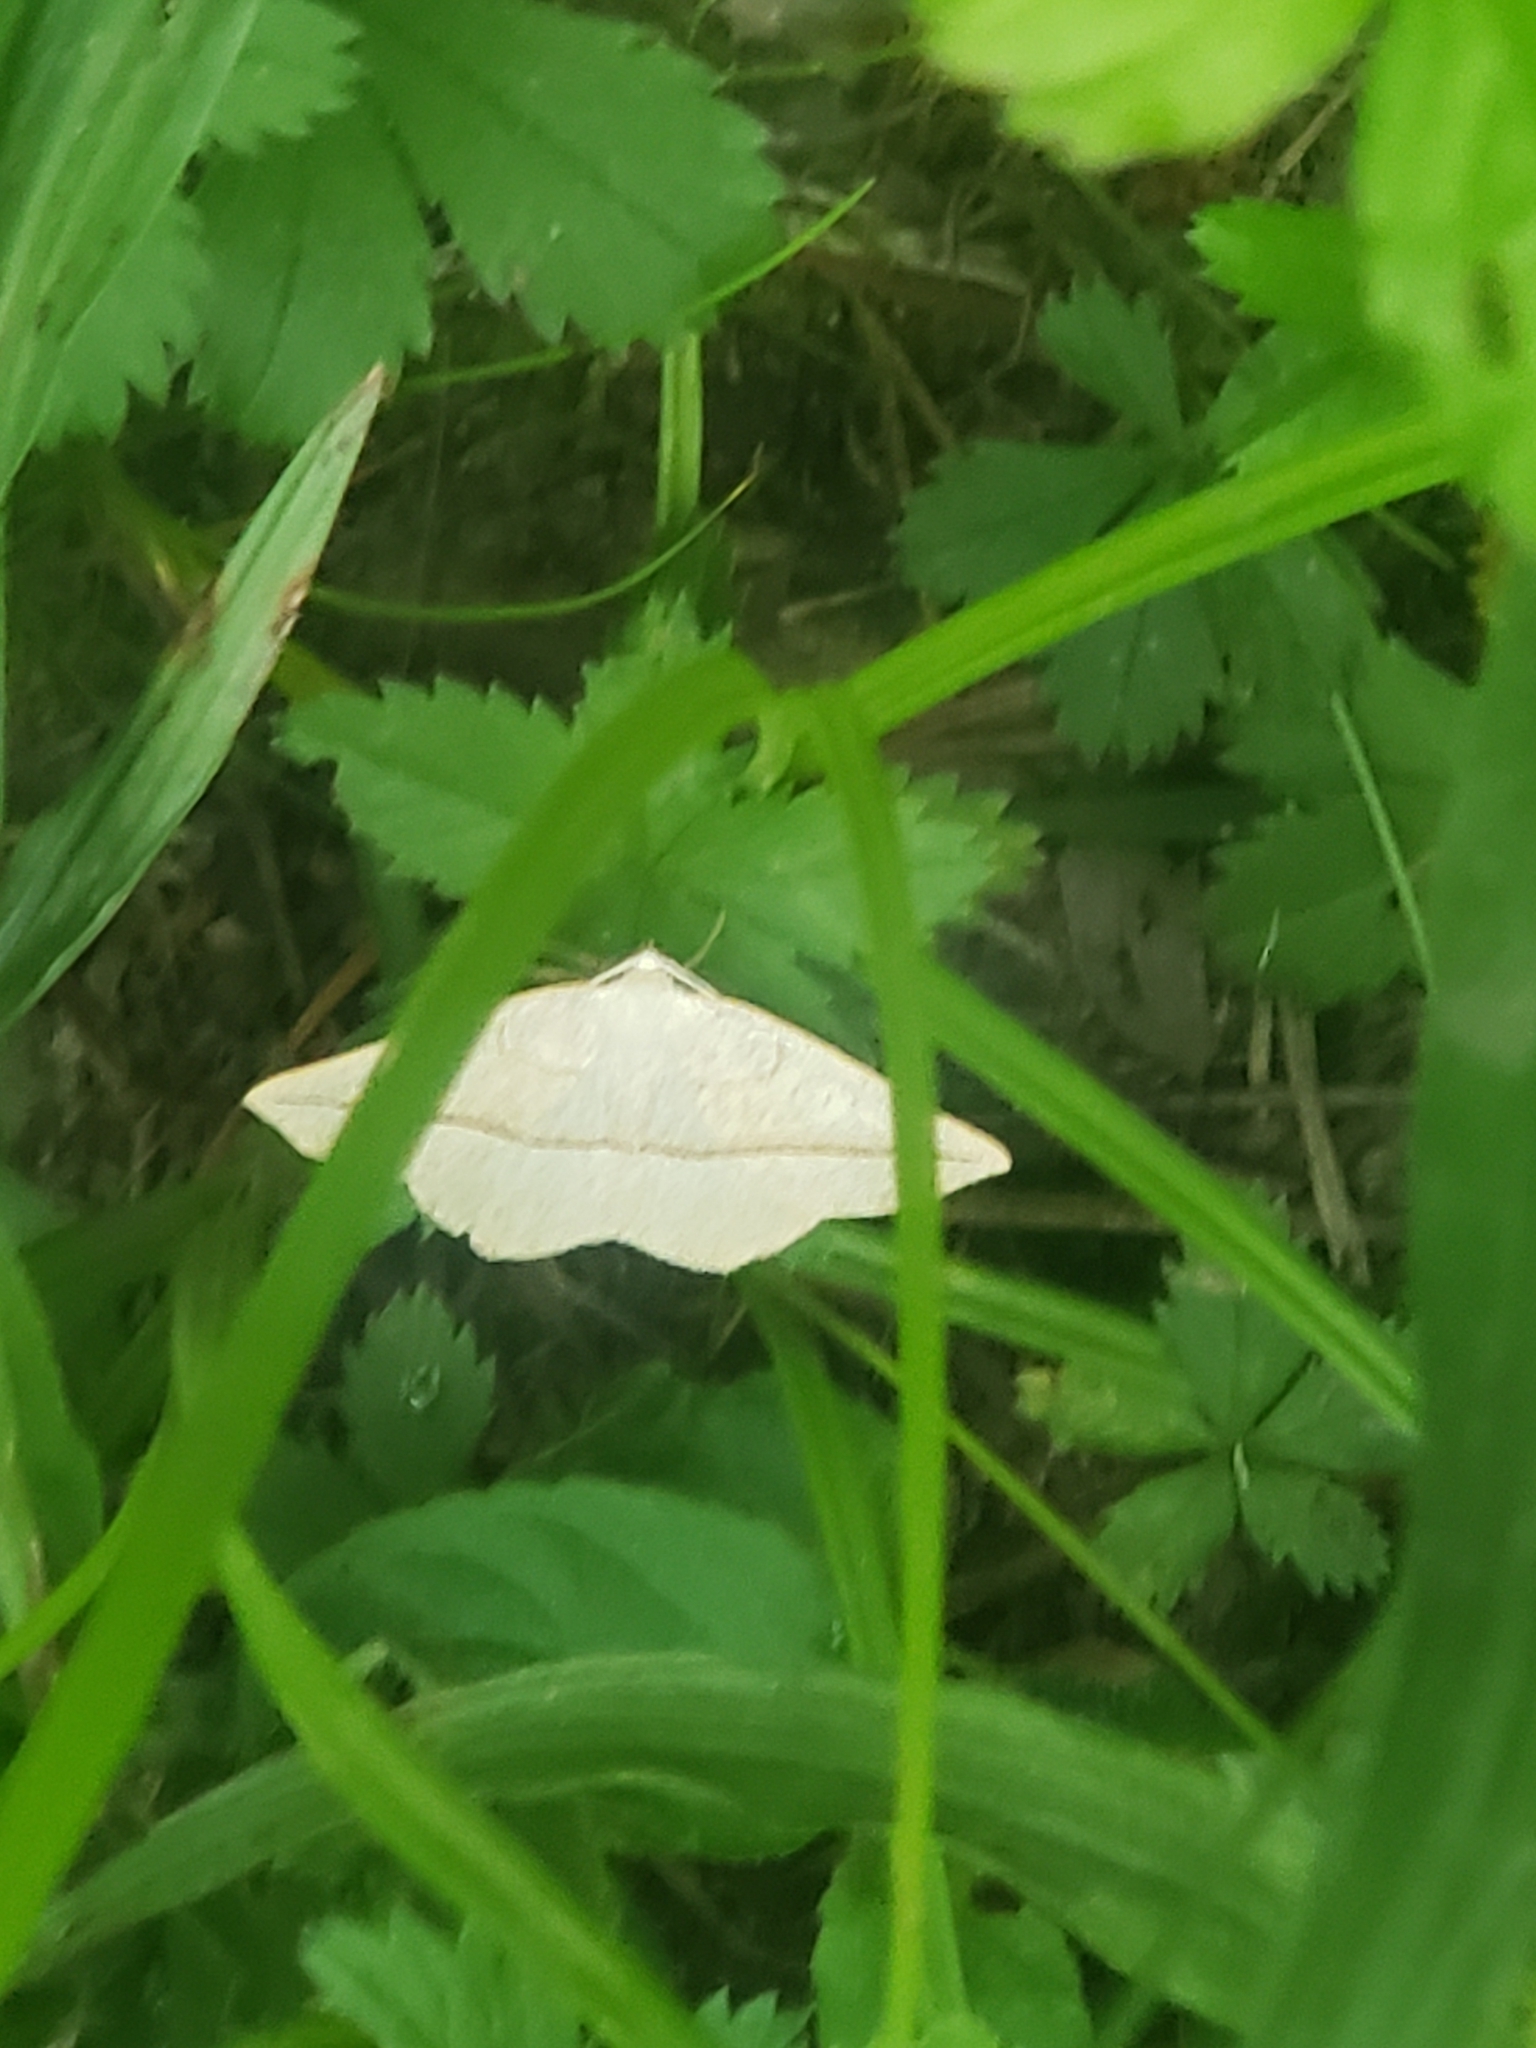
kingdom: Animalia
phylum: Arthropoda
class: Insecta
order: Lepidoptera
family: Geometridae
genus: Eusarca
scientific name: Eusarca confusaria
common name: Confused eusarca
